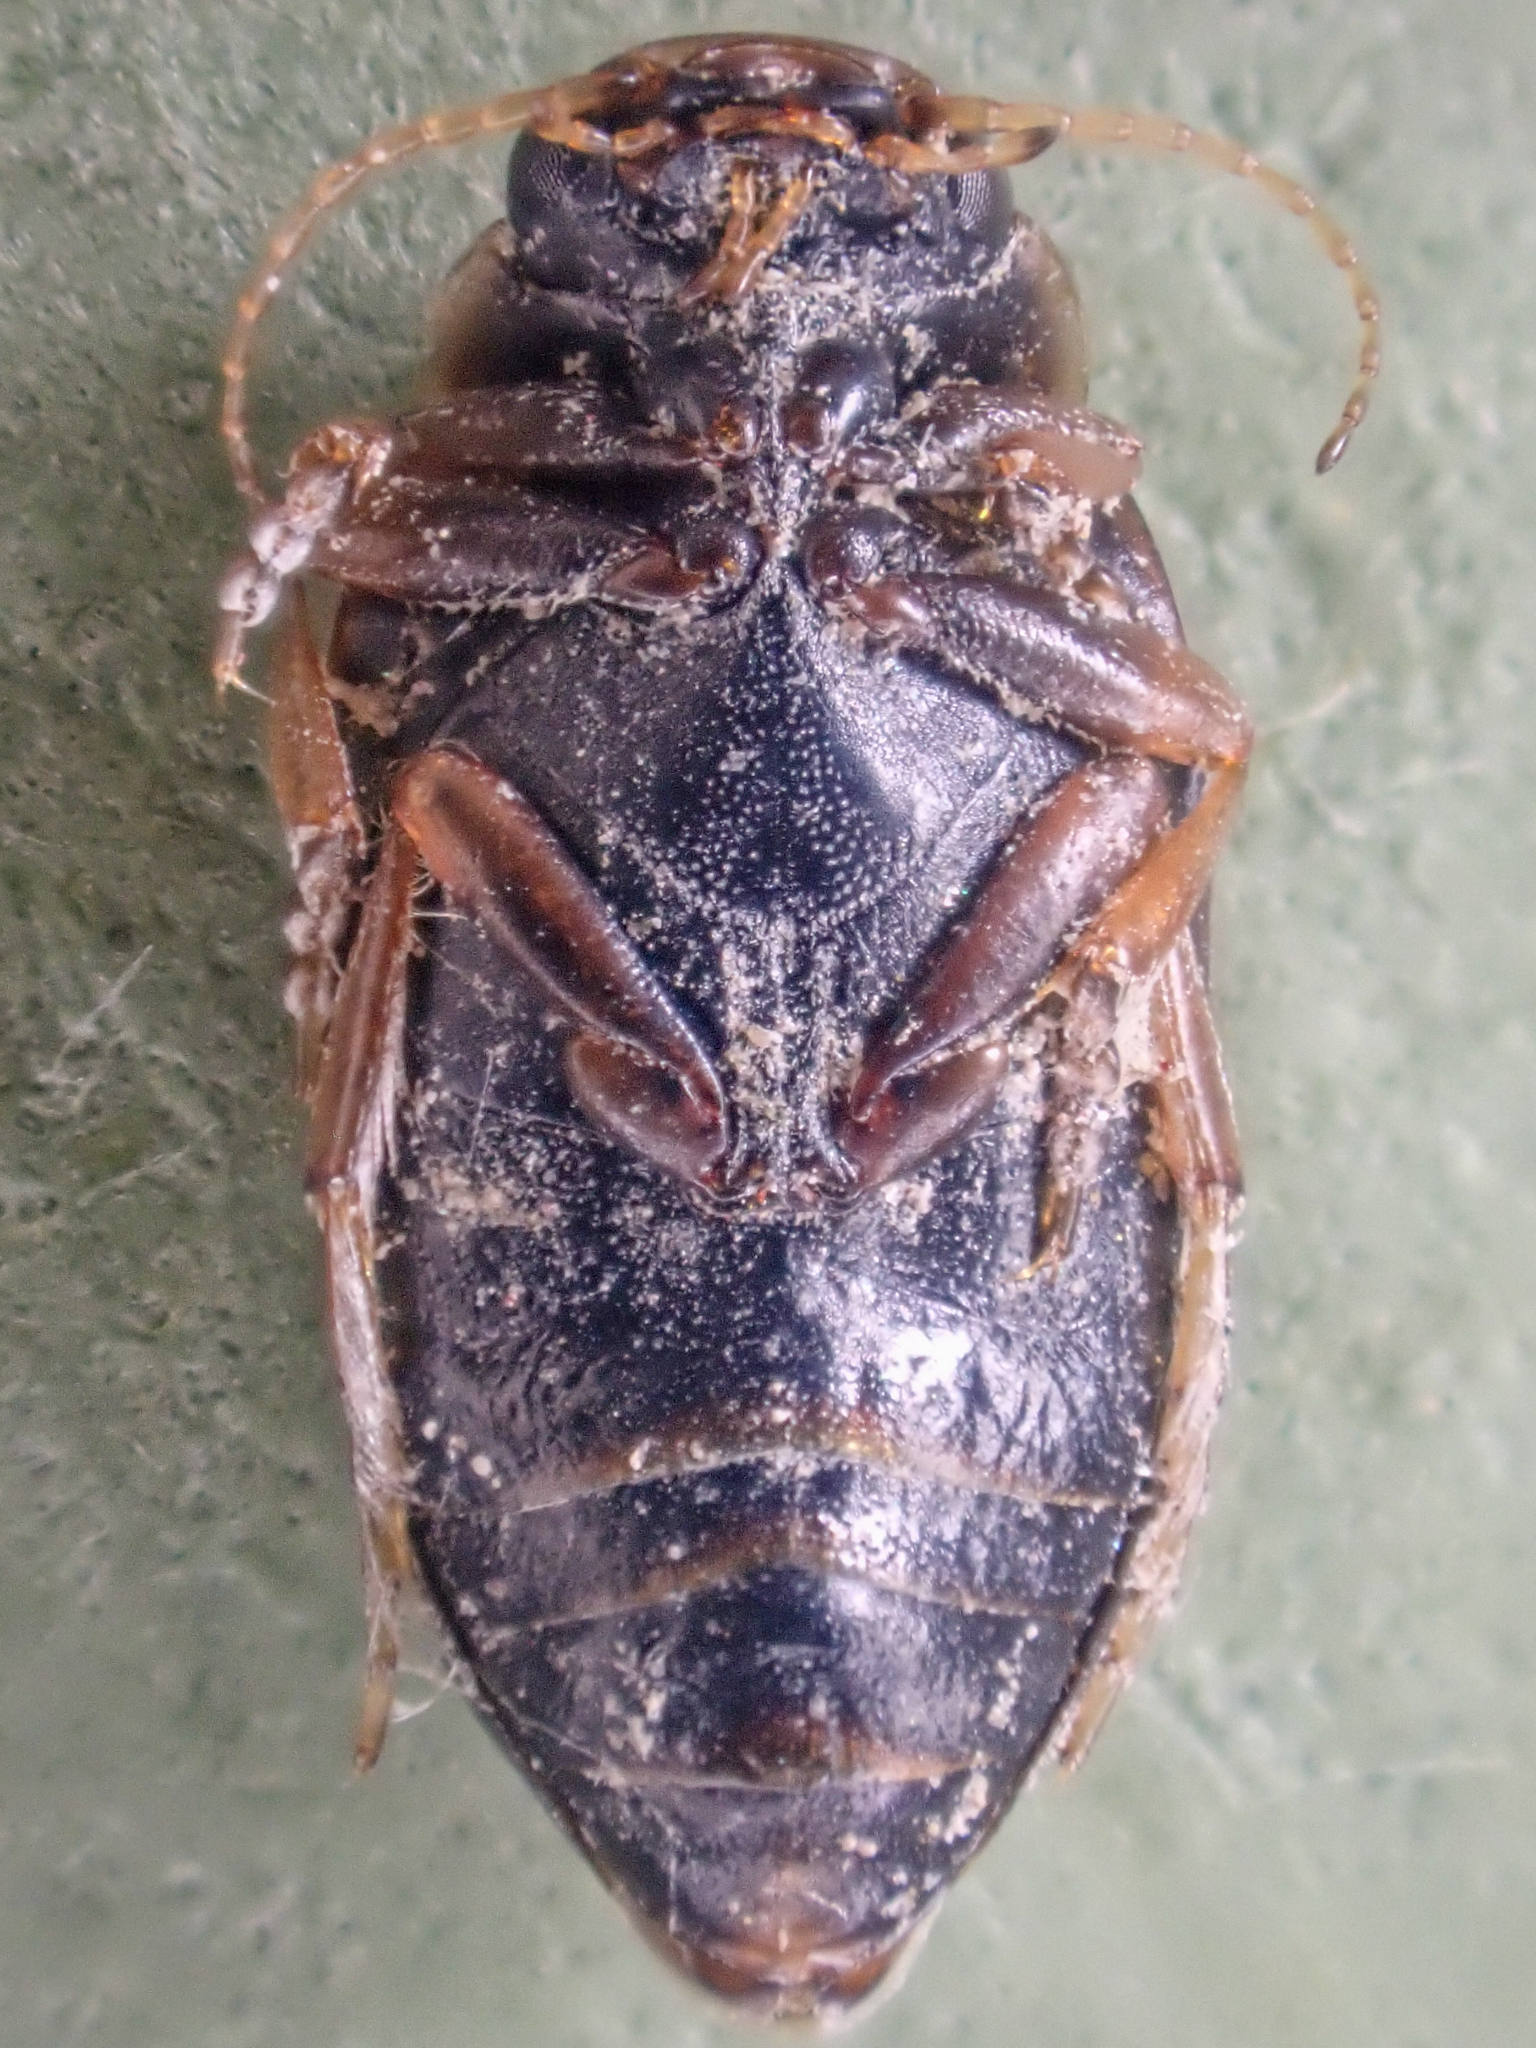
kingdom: Animalia
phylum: Arthropoda
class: Insecta
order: Coleoptera
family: Dytiscidae
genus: Oreodytes
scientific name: Oreodytes
